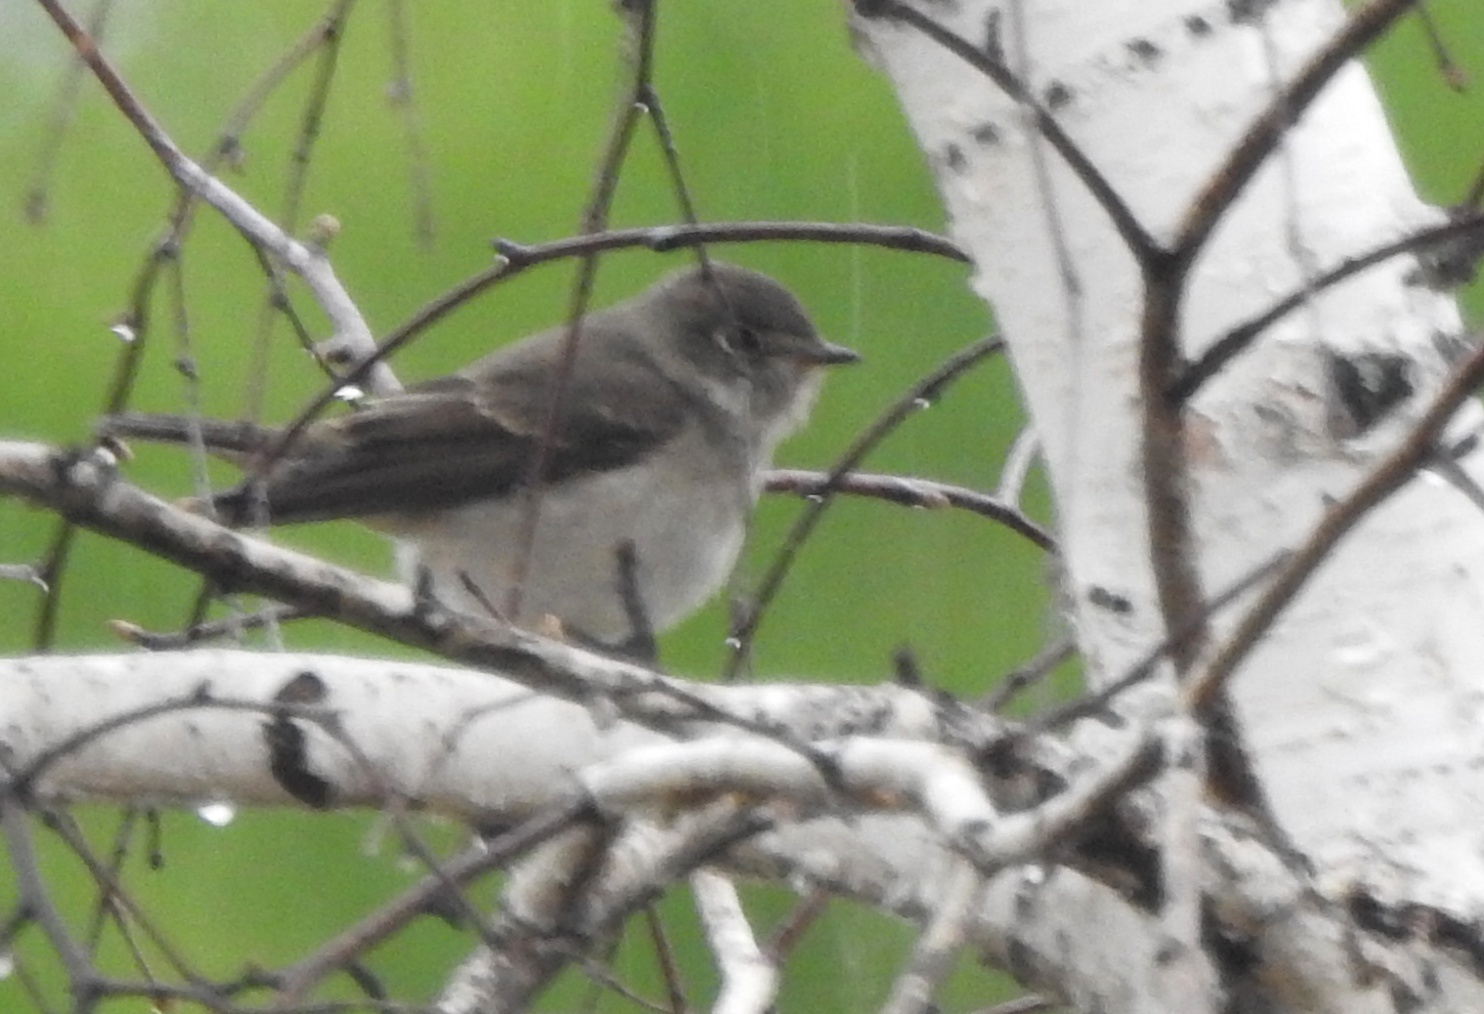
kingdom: Animalia
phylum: Chordata
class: Aves
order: Passeriformes
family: Muscicapidae
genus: Muscicapa
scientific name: Muscicapa sibirica
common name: Dark-sided flycatcher
